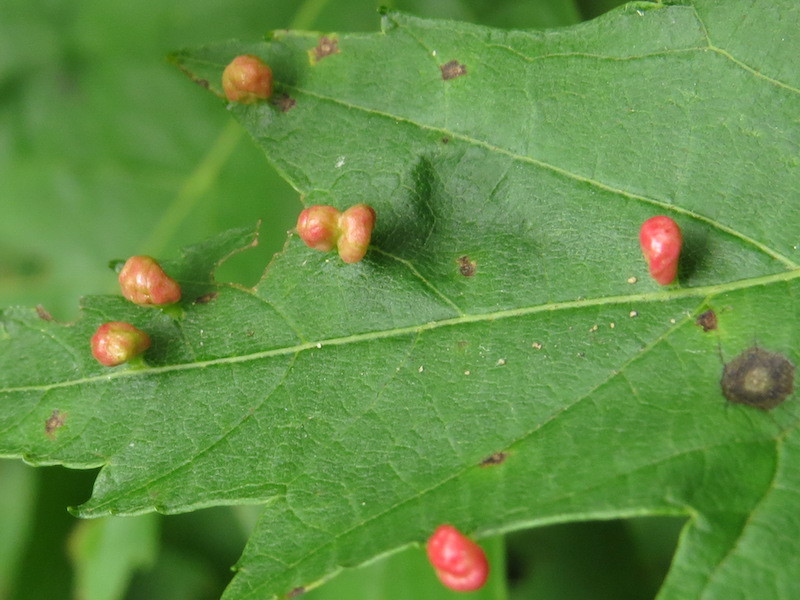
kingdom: Animalia
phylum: Arthropoda
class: Arachnida
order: Trombidiformes
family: Eriophyidae
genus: Vasates
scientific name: Vasates quadripedes
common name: Maple bladder gall mite
